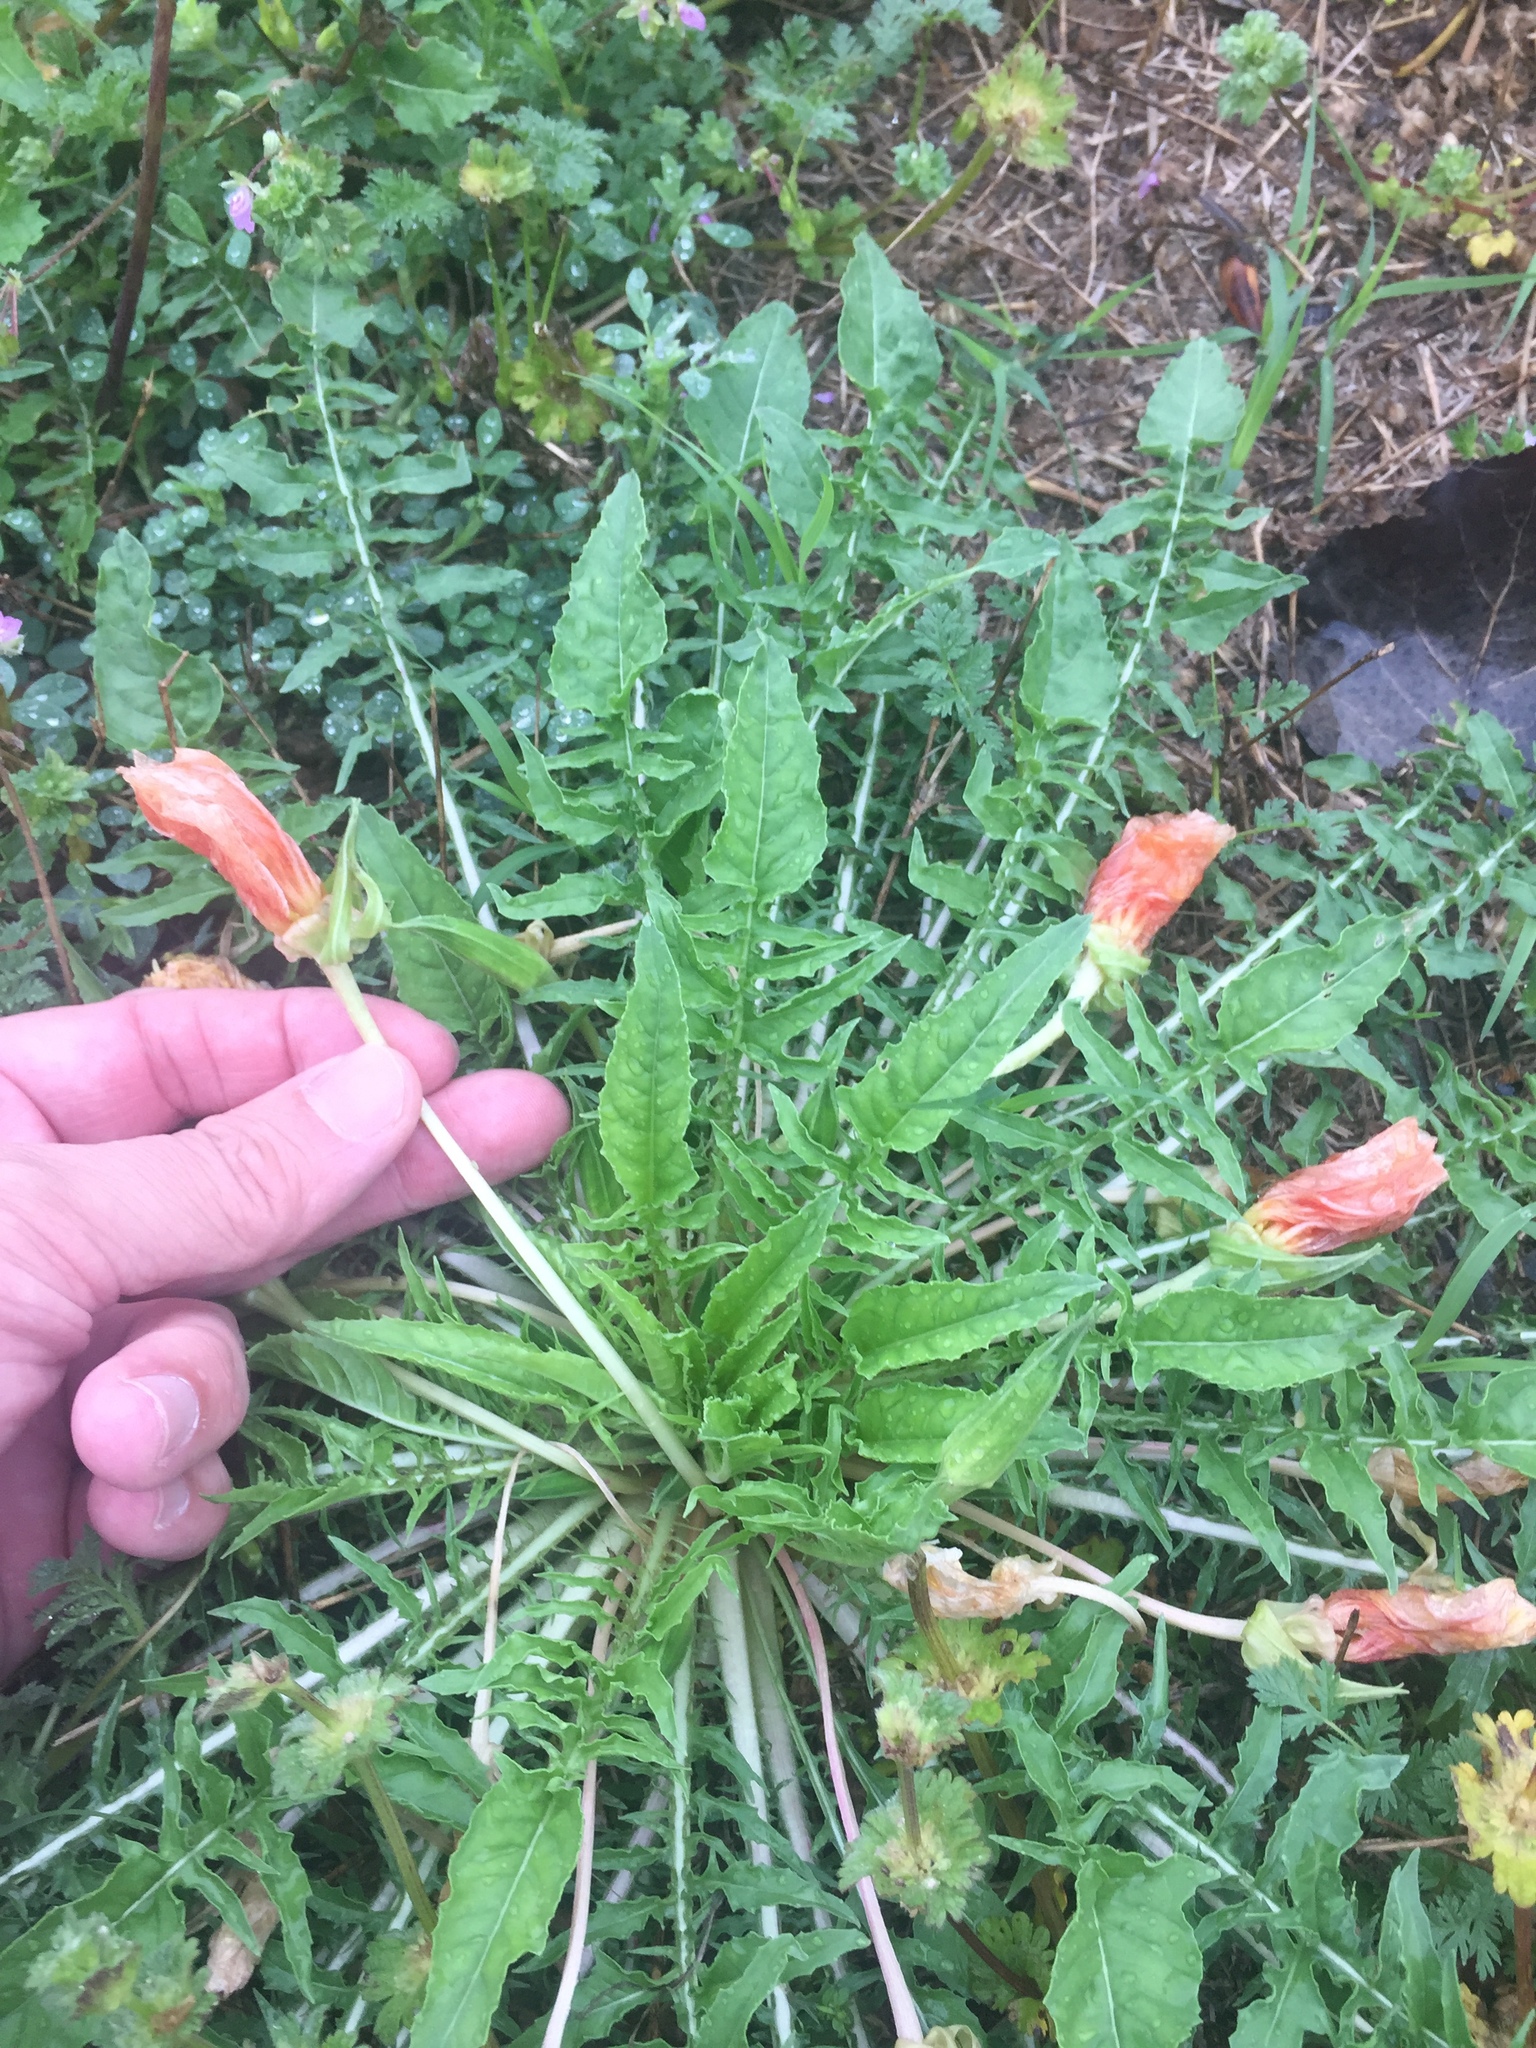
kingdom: Plantae
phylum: Tracheophyta
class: Magnoliopsida
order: Myrtales
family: Onagraceae
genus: Oenothera
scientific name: Oenothera triloba
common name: Sessile evening-primrose
